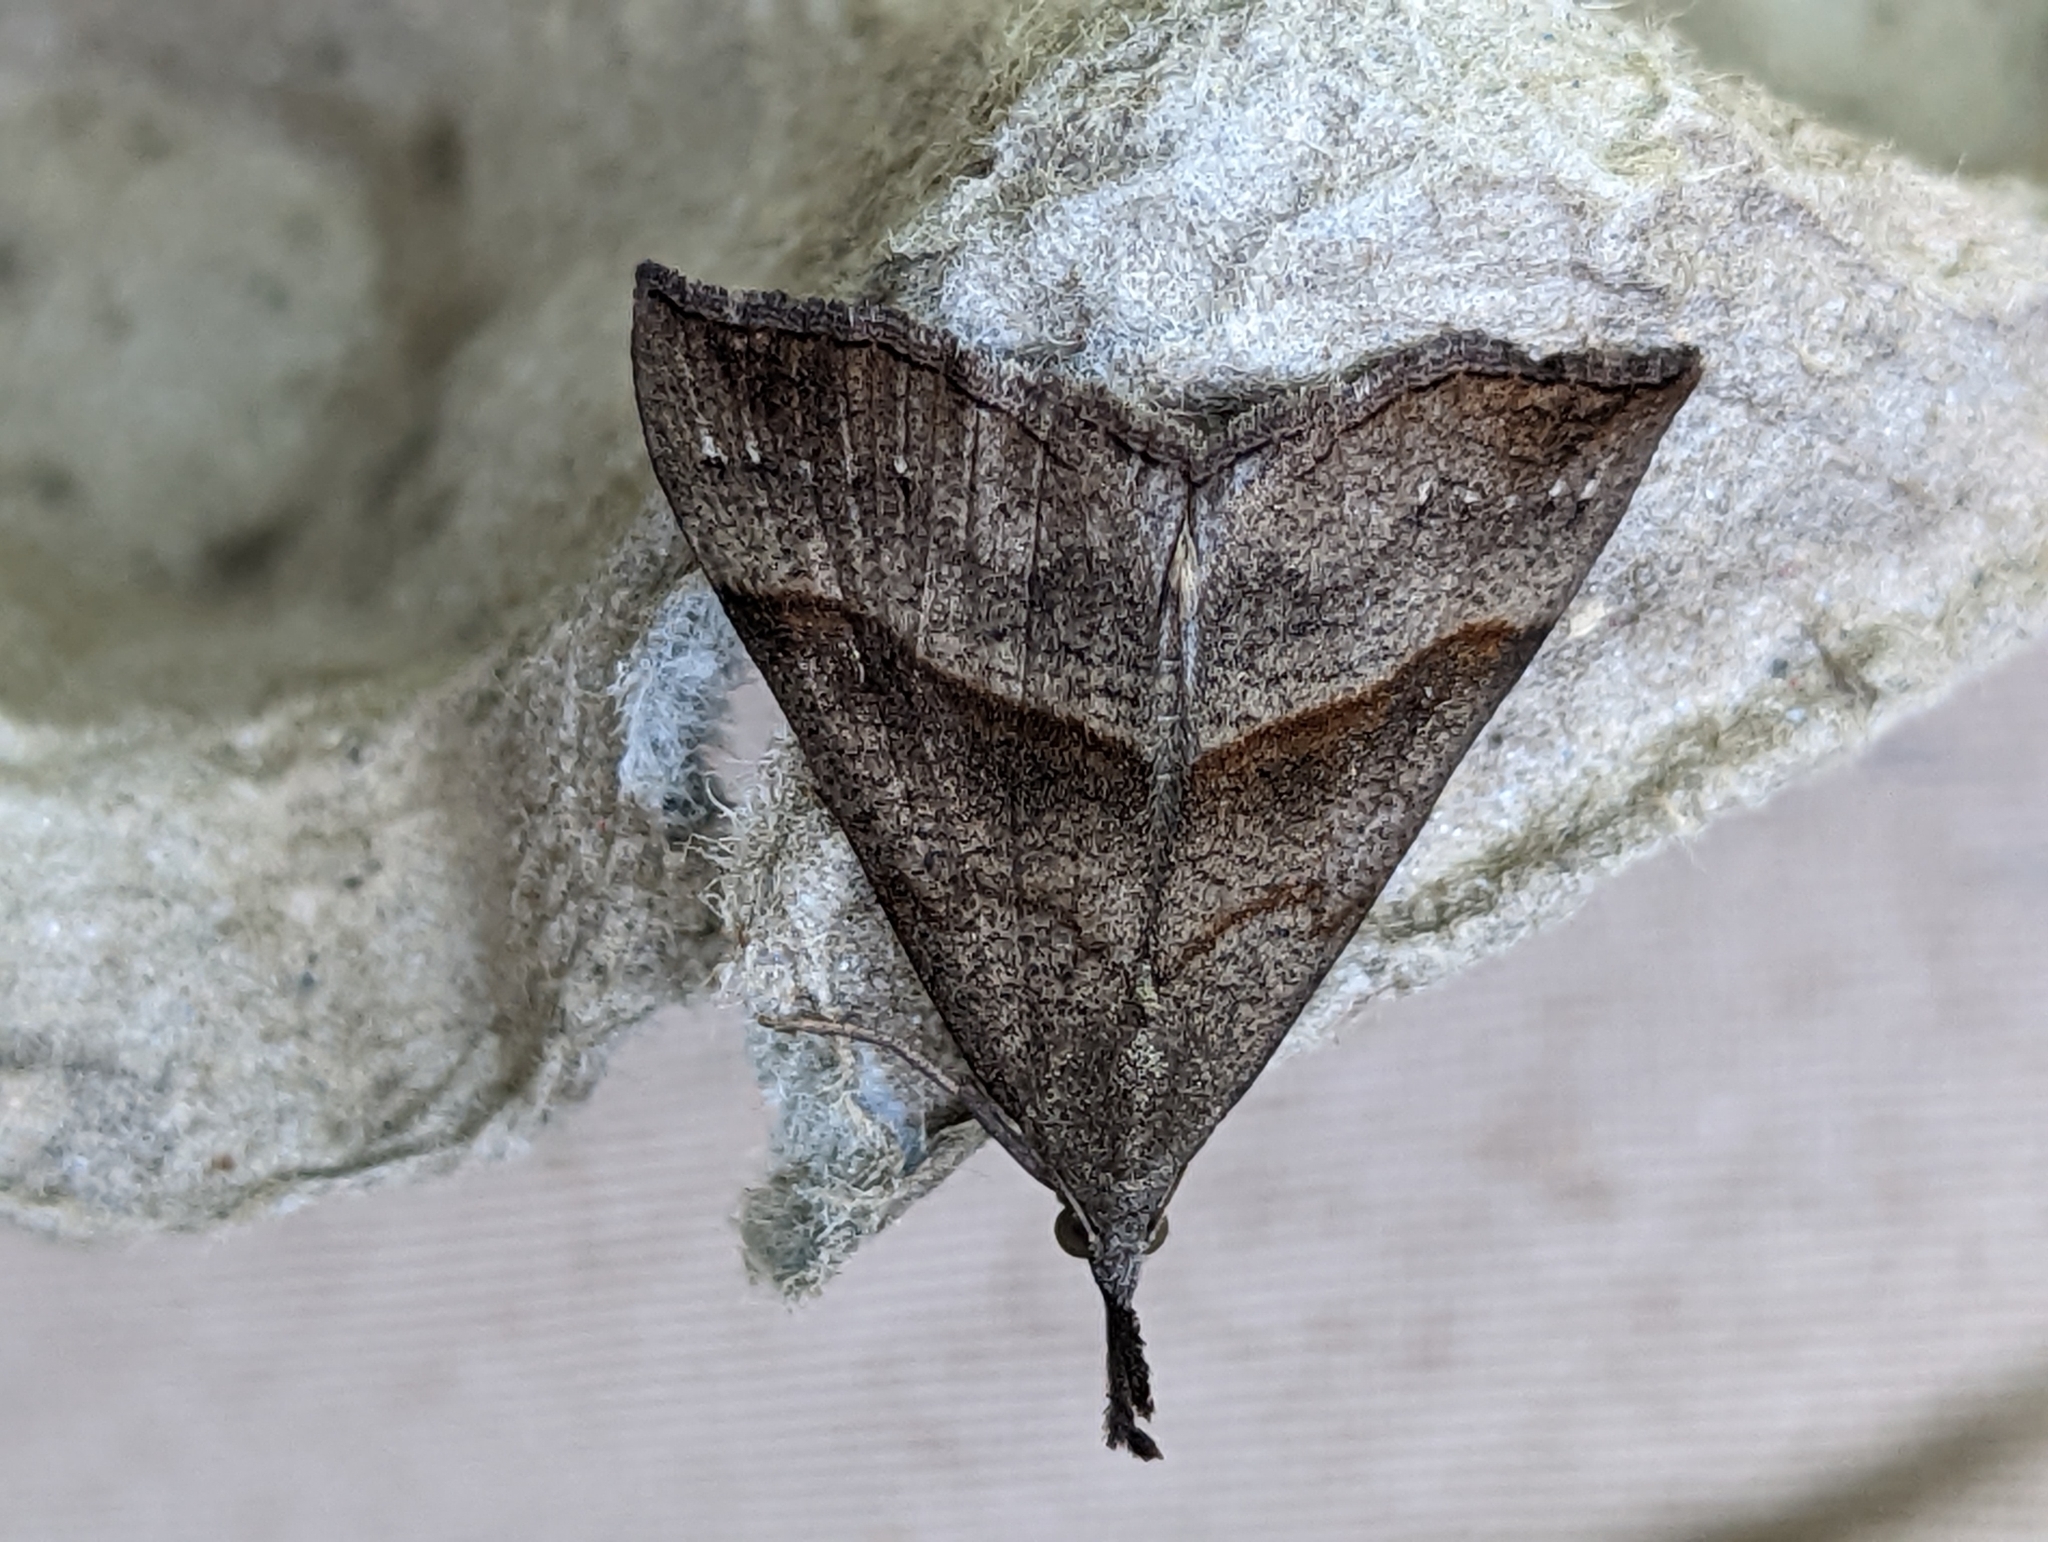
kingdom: Animalia
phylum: Arthropoda
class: Insecta
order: Lepidoptera
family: Erebidae
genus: Hypena
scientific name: Hypena proboscidalis
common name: Snout
